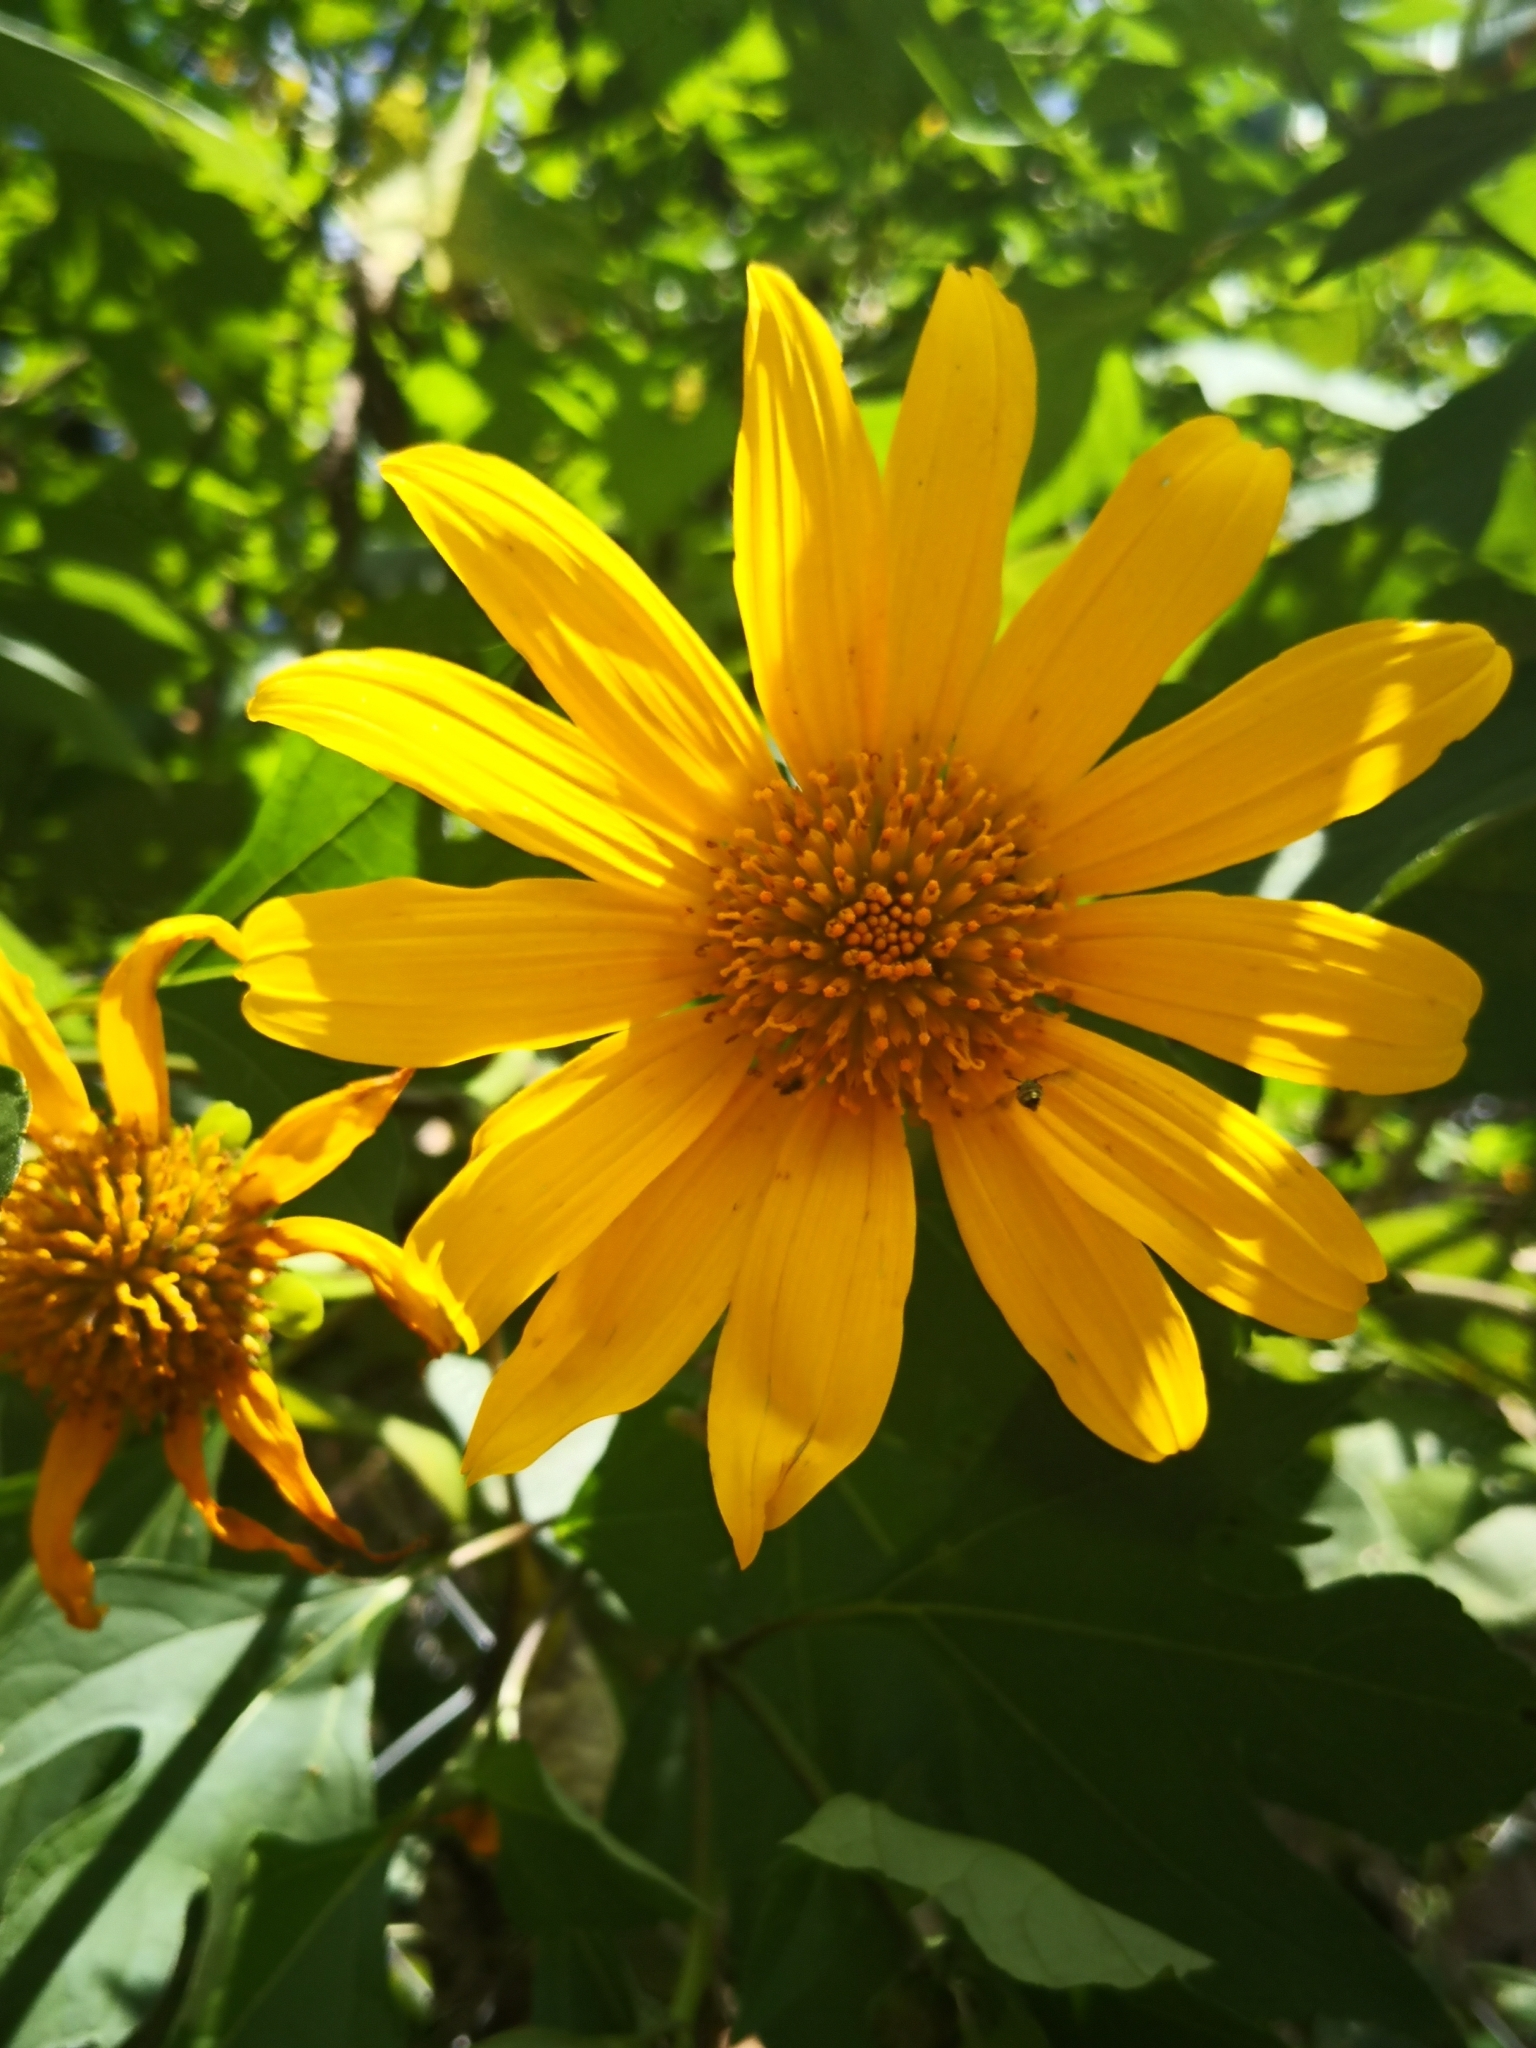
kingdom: Plantae
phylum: Tracheophyta
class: Magnoliopsida
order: Asterales
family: Asteraceae
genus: Tithonia
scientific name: Tithonia diversifolia
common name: Tree marigold
